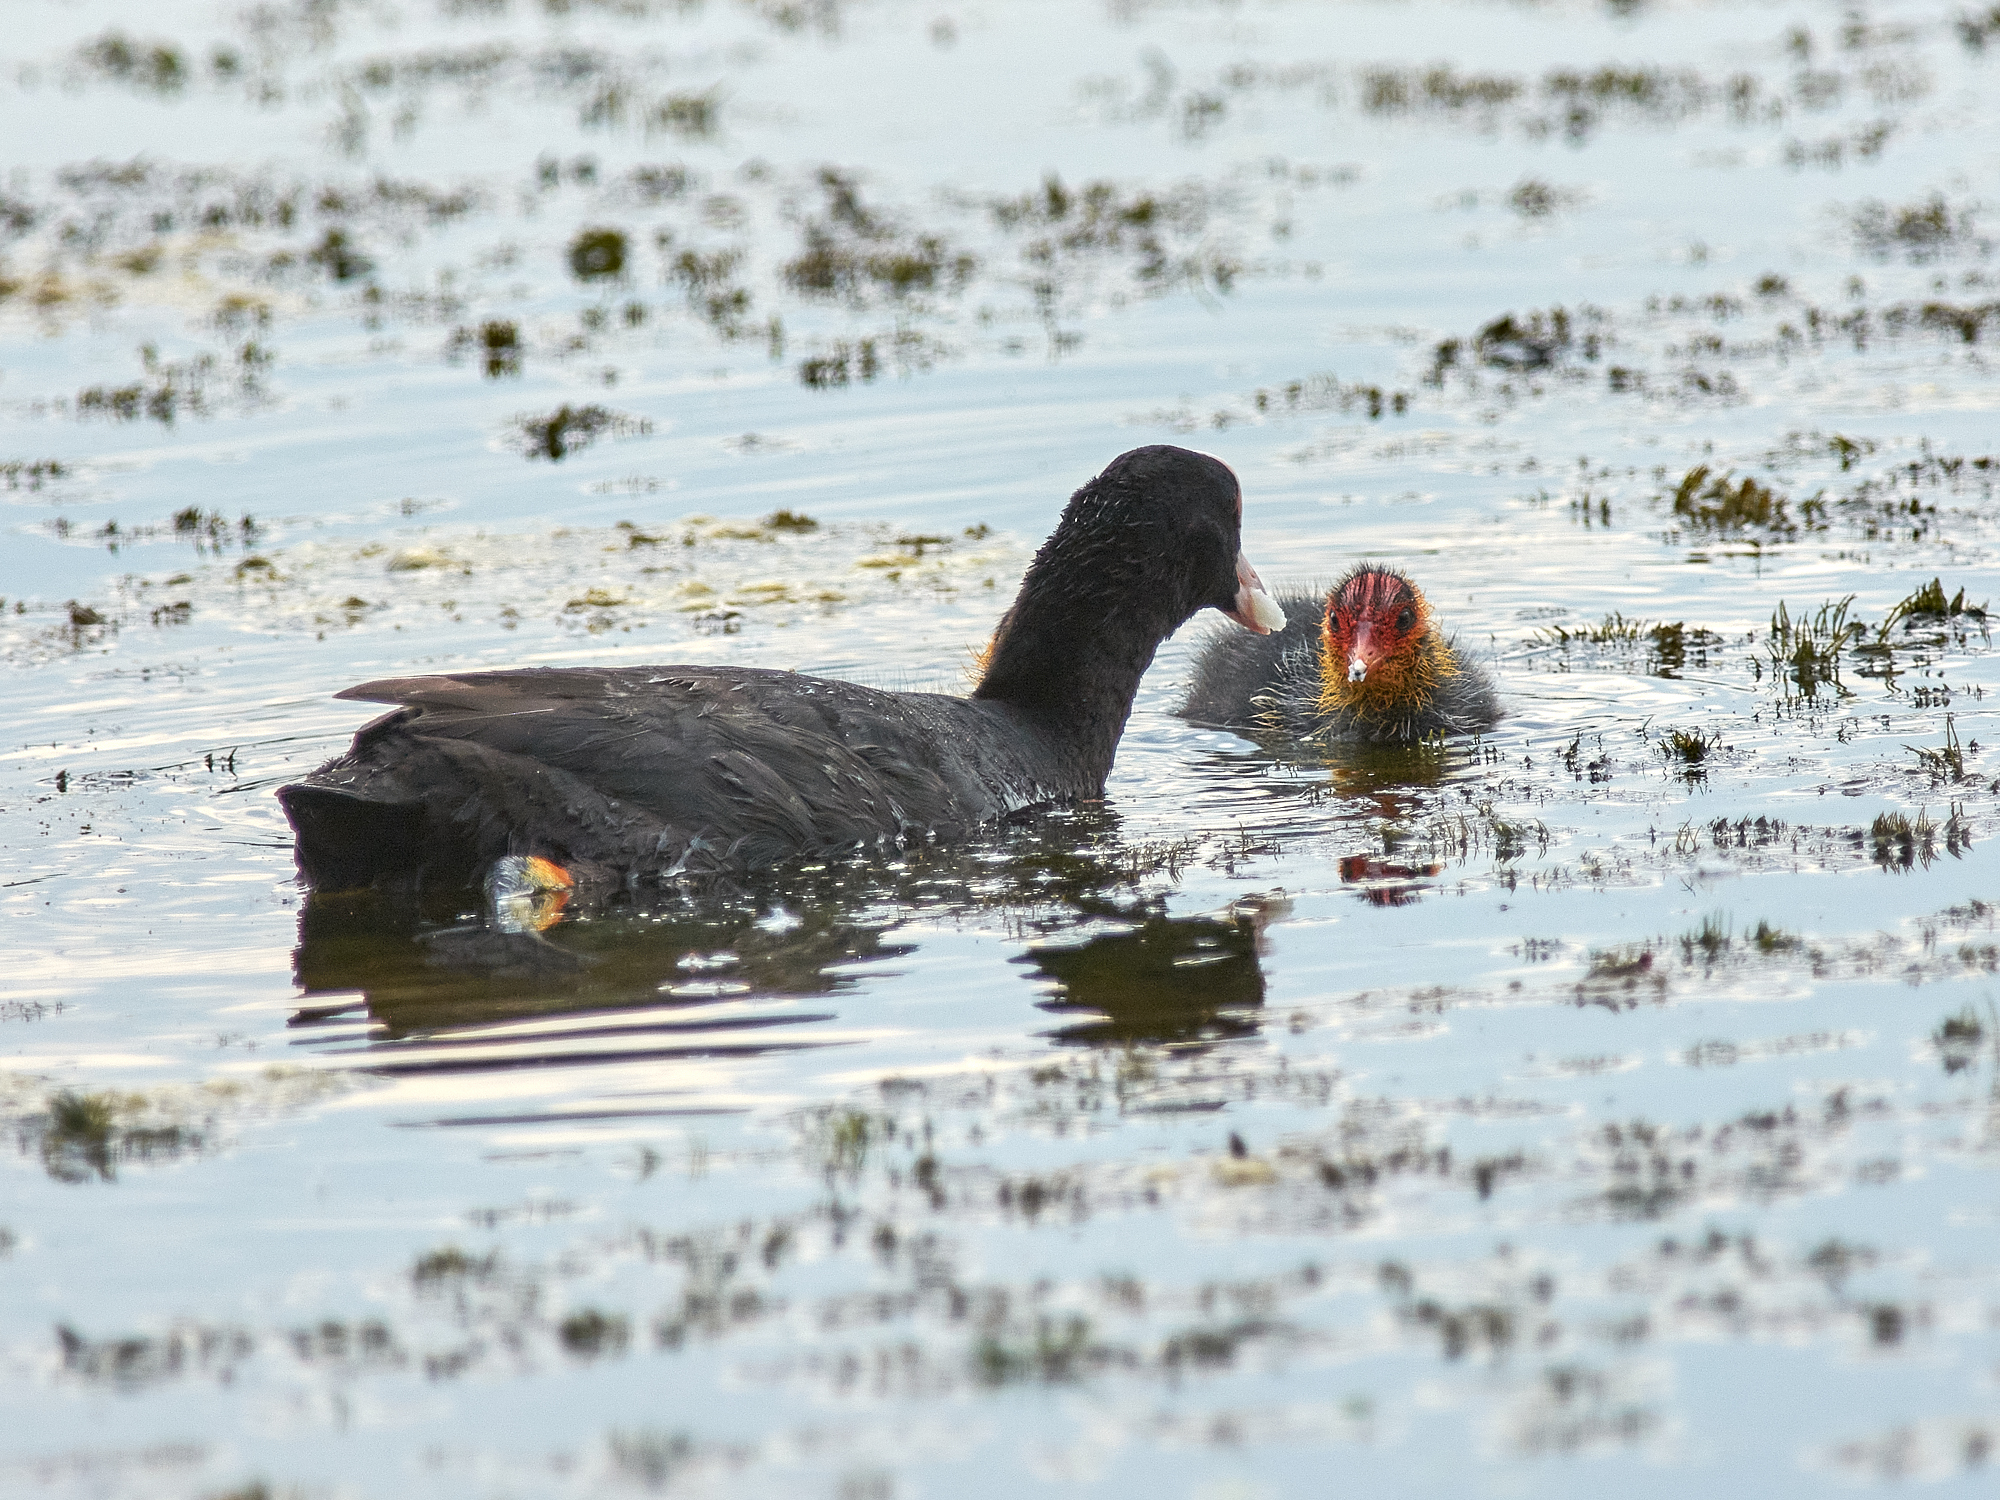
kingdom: Animalia
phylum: Chordata
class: Aves
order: Gruiformes
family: Rallidae
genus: Fulica
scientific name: Fulica atra
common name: Eurasian coot
